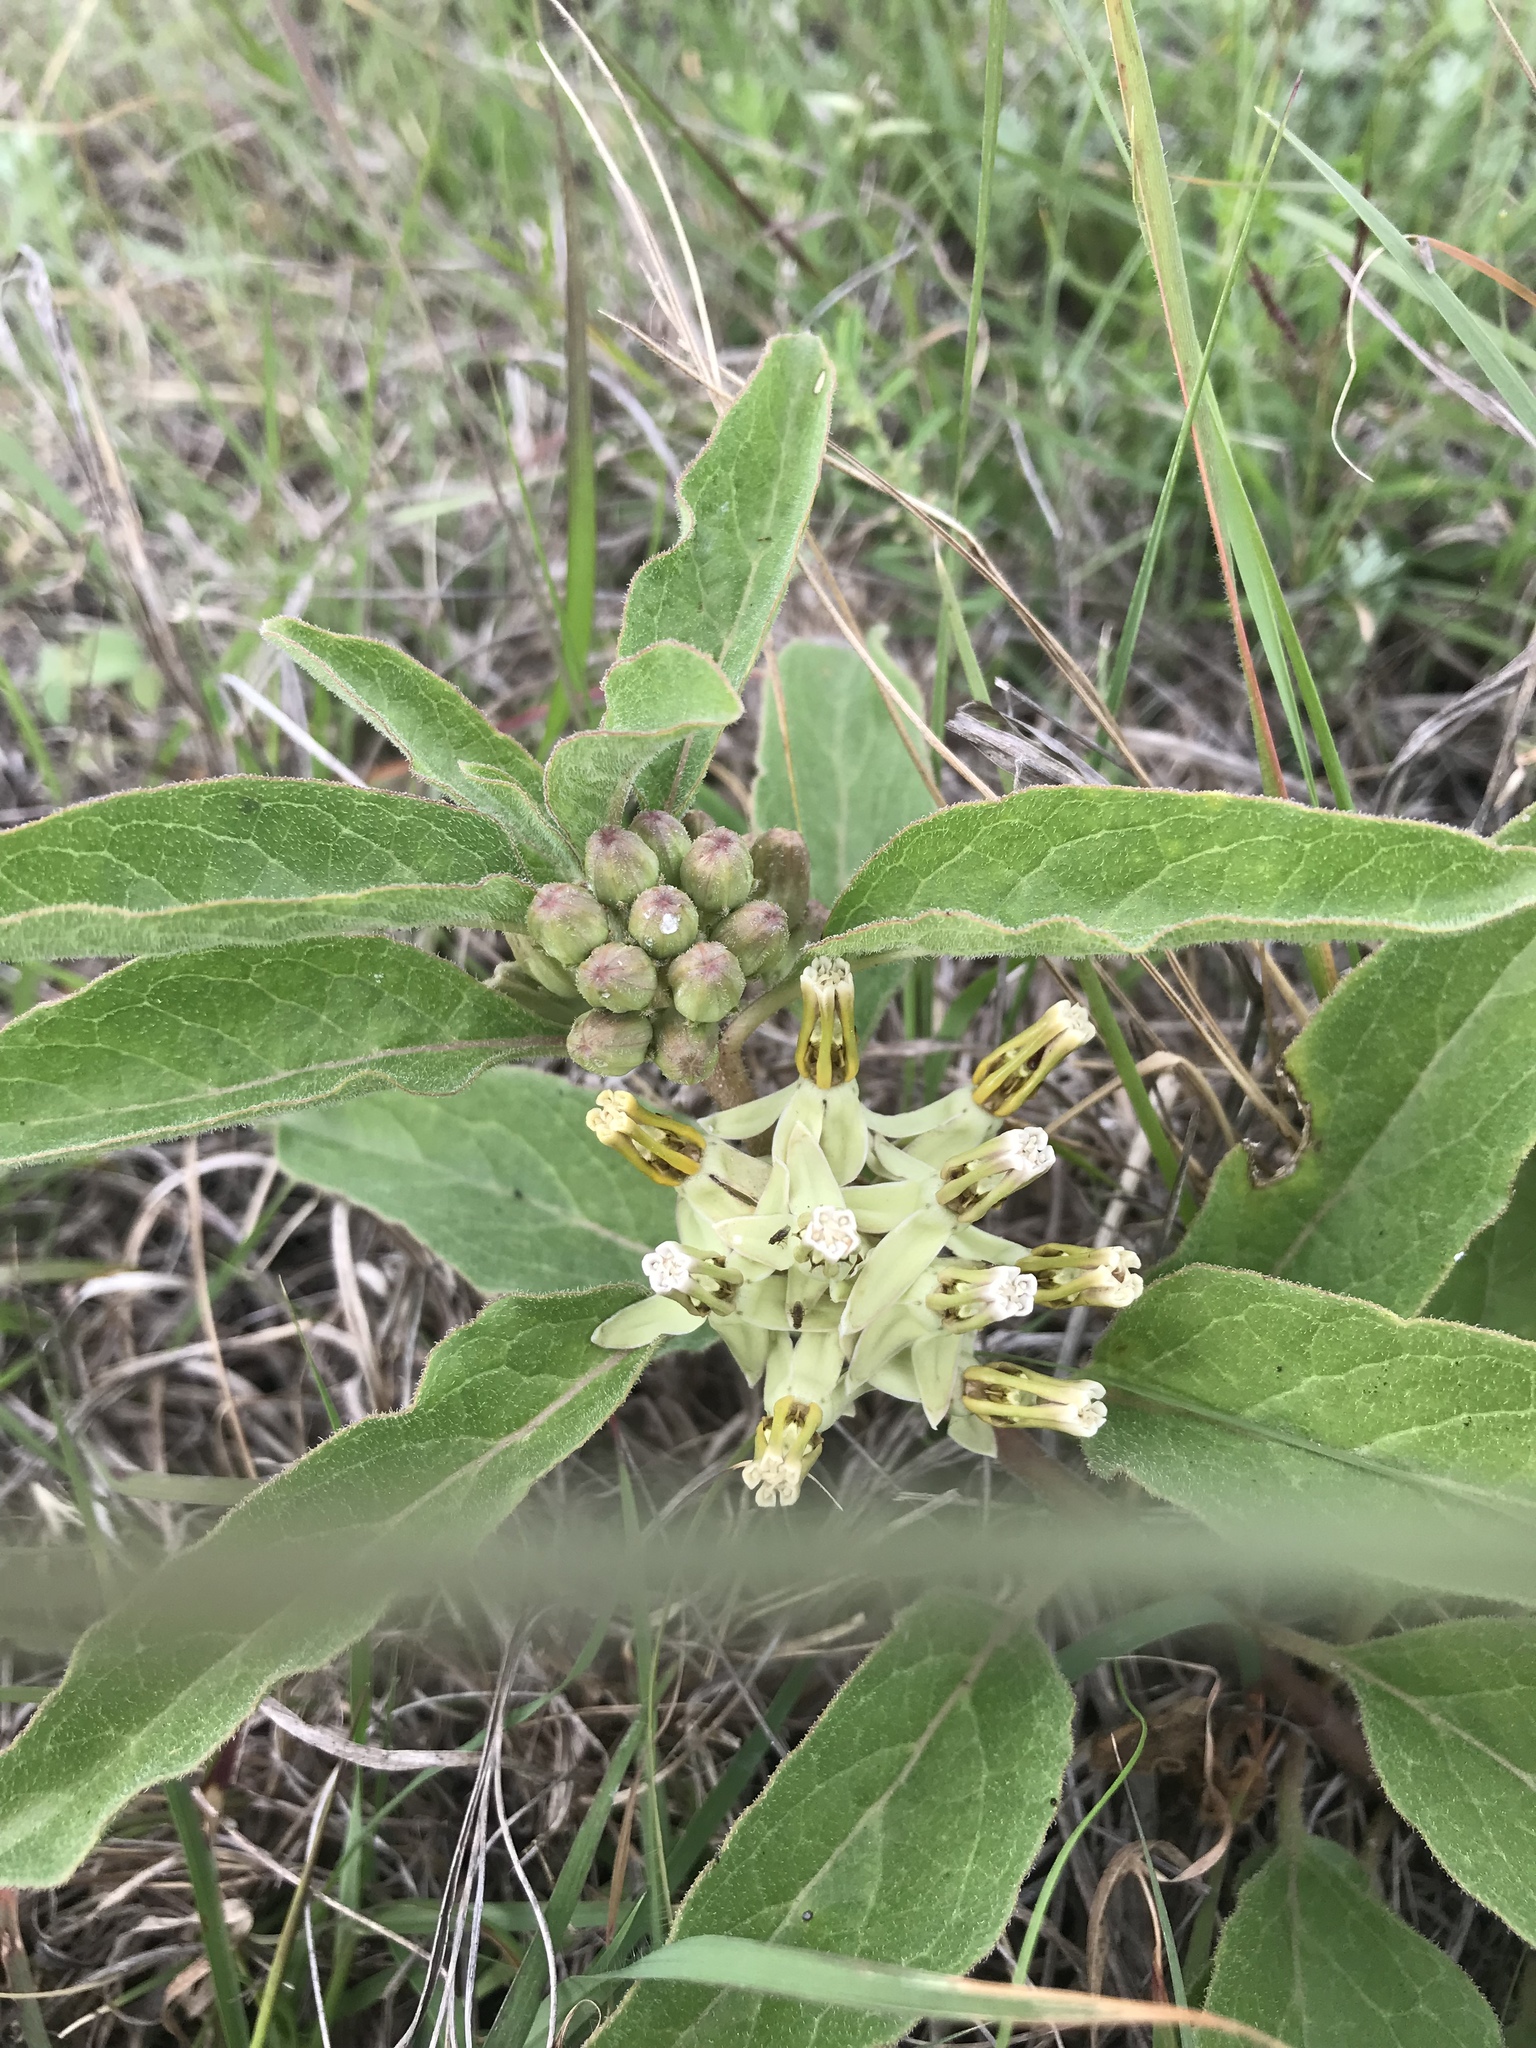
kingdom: Plantae
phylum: Tracheophyta
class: Magnoliopsida
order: Gentianales
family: Apocynaceae
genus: Asclepias
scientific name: Asclepias oenotheroides
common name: Zizotes milkweed
